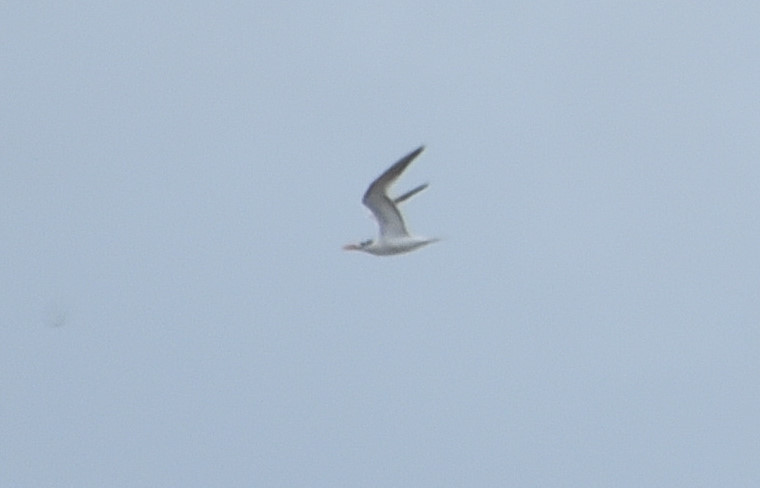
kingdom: Animalia
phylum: Chordata
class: Aves
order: Charadriiformes
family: Laridae
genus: Sternula
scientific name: Sternula antillarum
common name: Least tern
